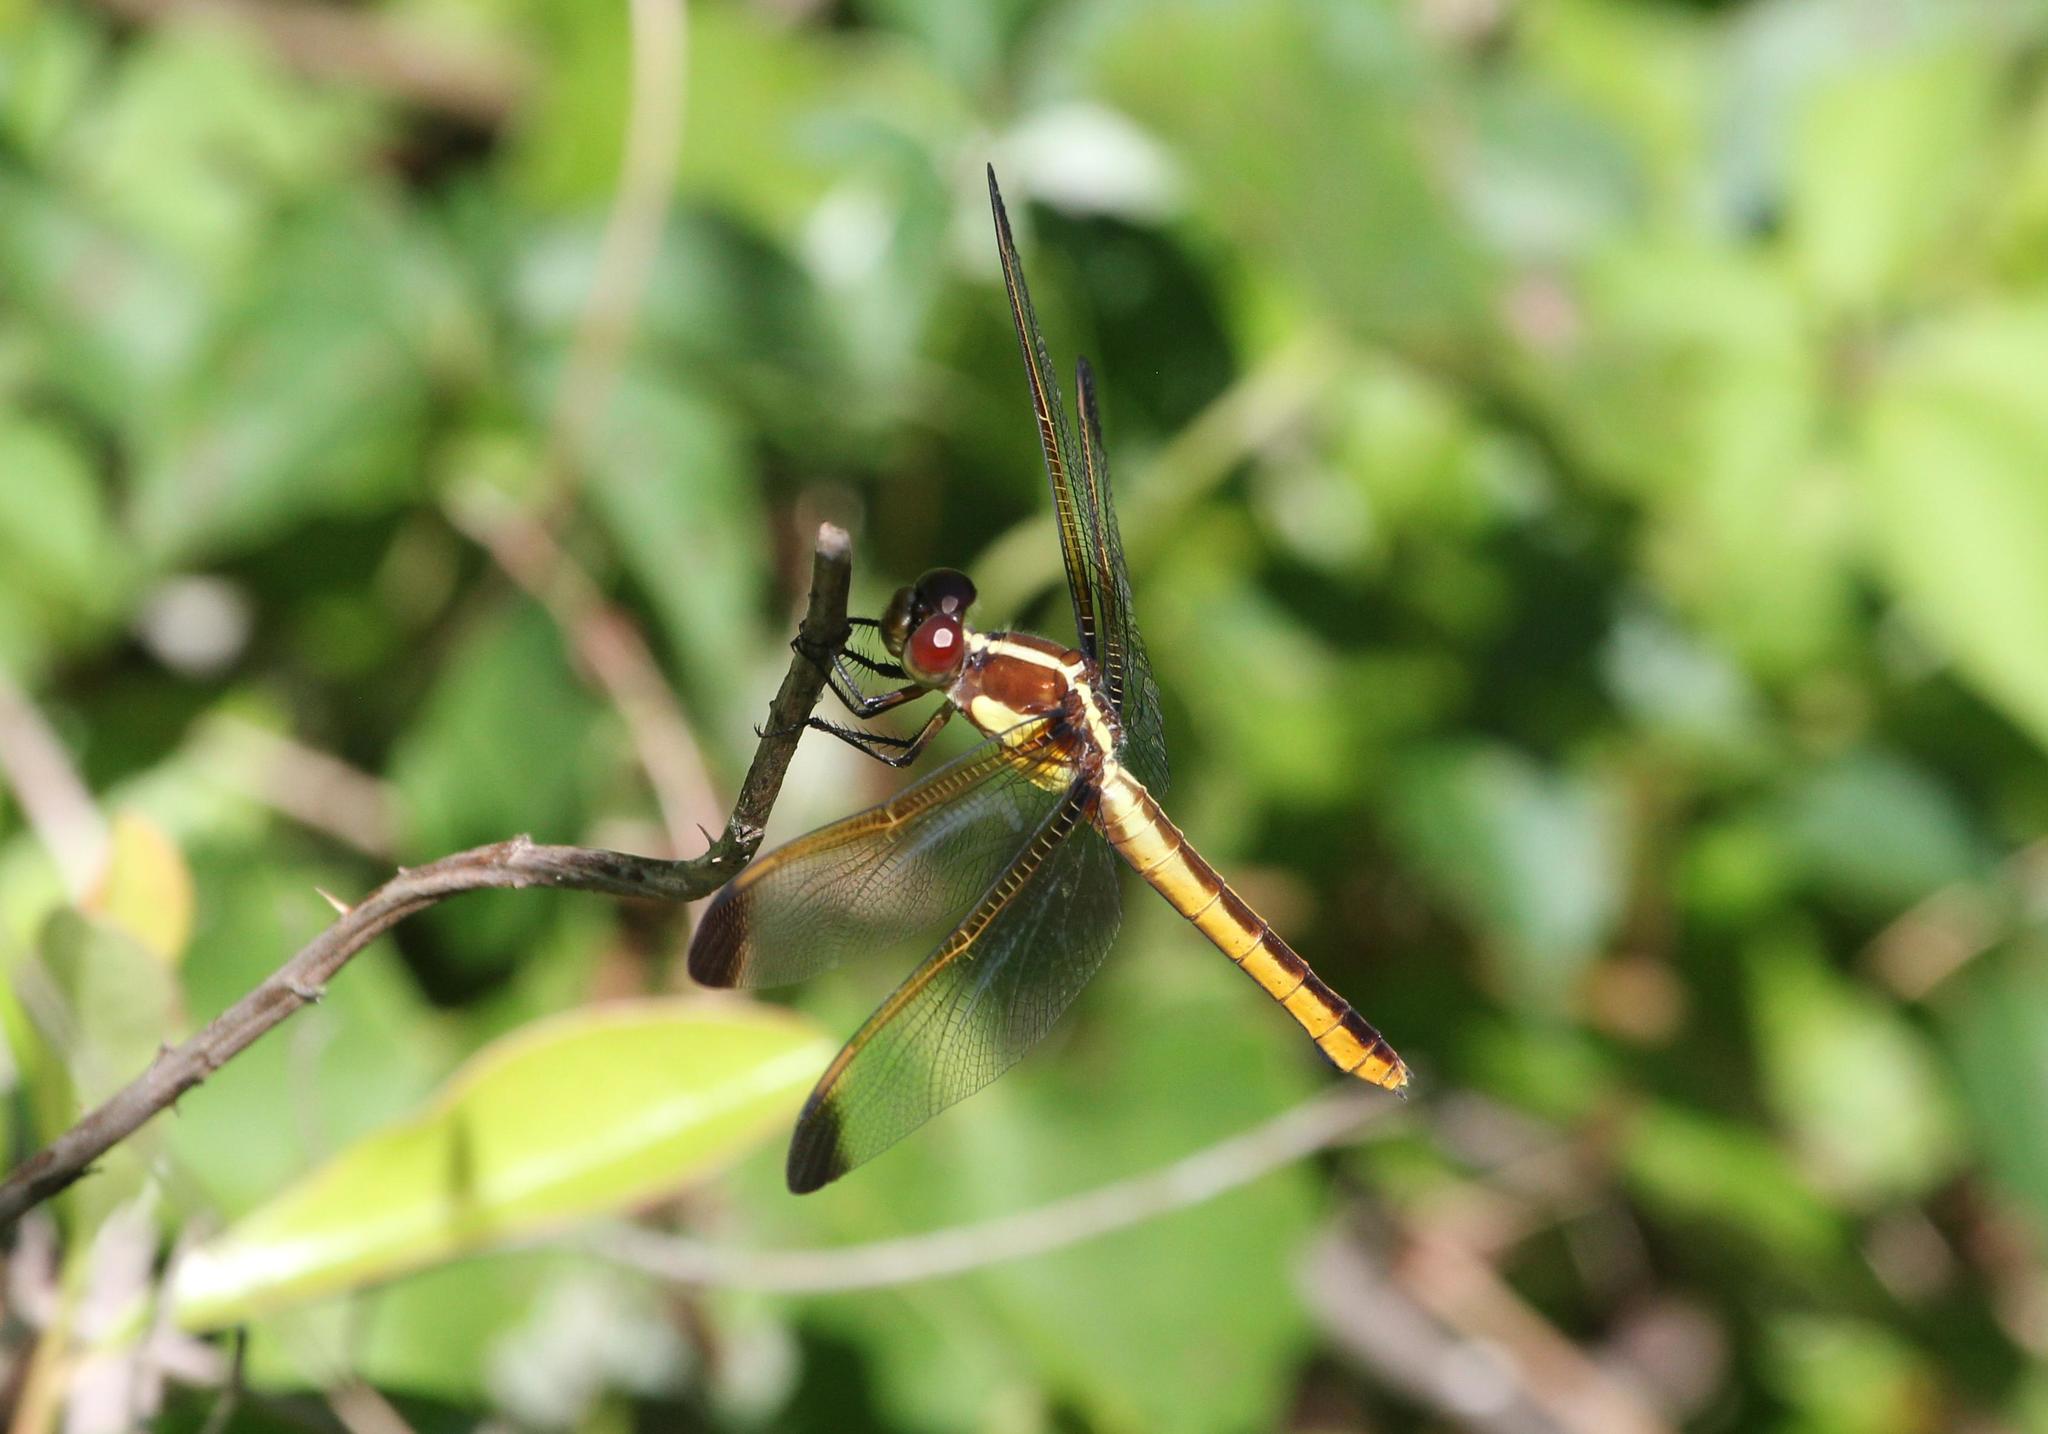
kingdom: Animalia
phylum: Arthropoda
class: Insecta
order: Odonata
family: Libellulidae
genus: Libellula
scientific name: Libellula flavida
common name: Yellow-sided skimmer
